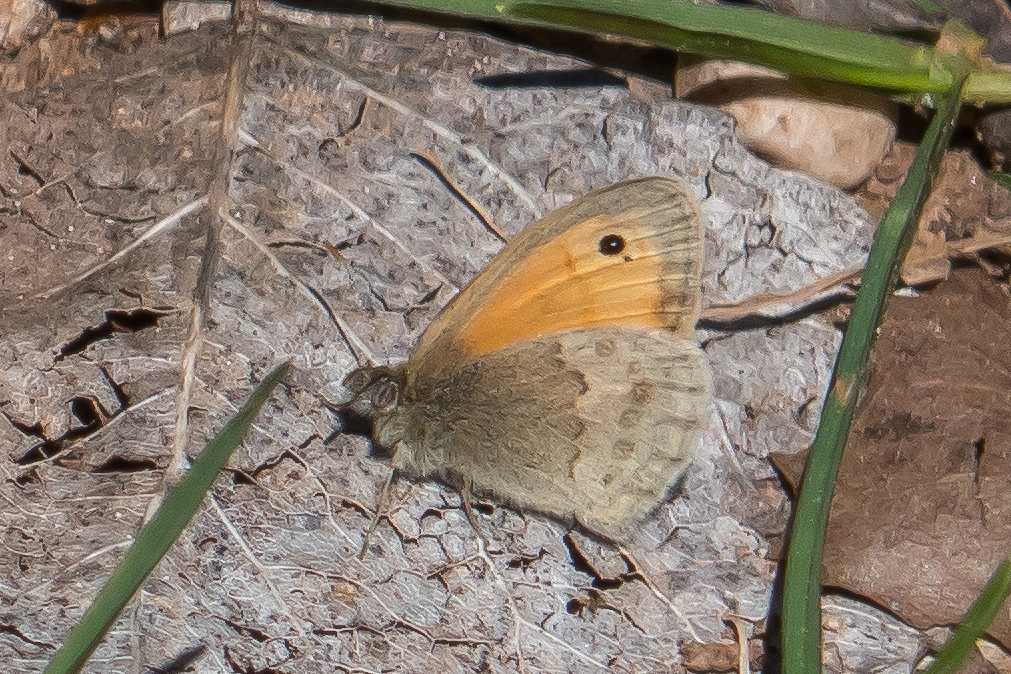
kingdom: Animalia
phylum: Arthropoda
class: Insecta
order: Lepidoptera
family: Nymphalidae
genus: Coenonympha
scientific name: Coenonympha pamphilus
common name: Small heath
